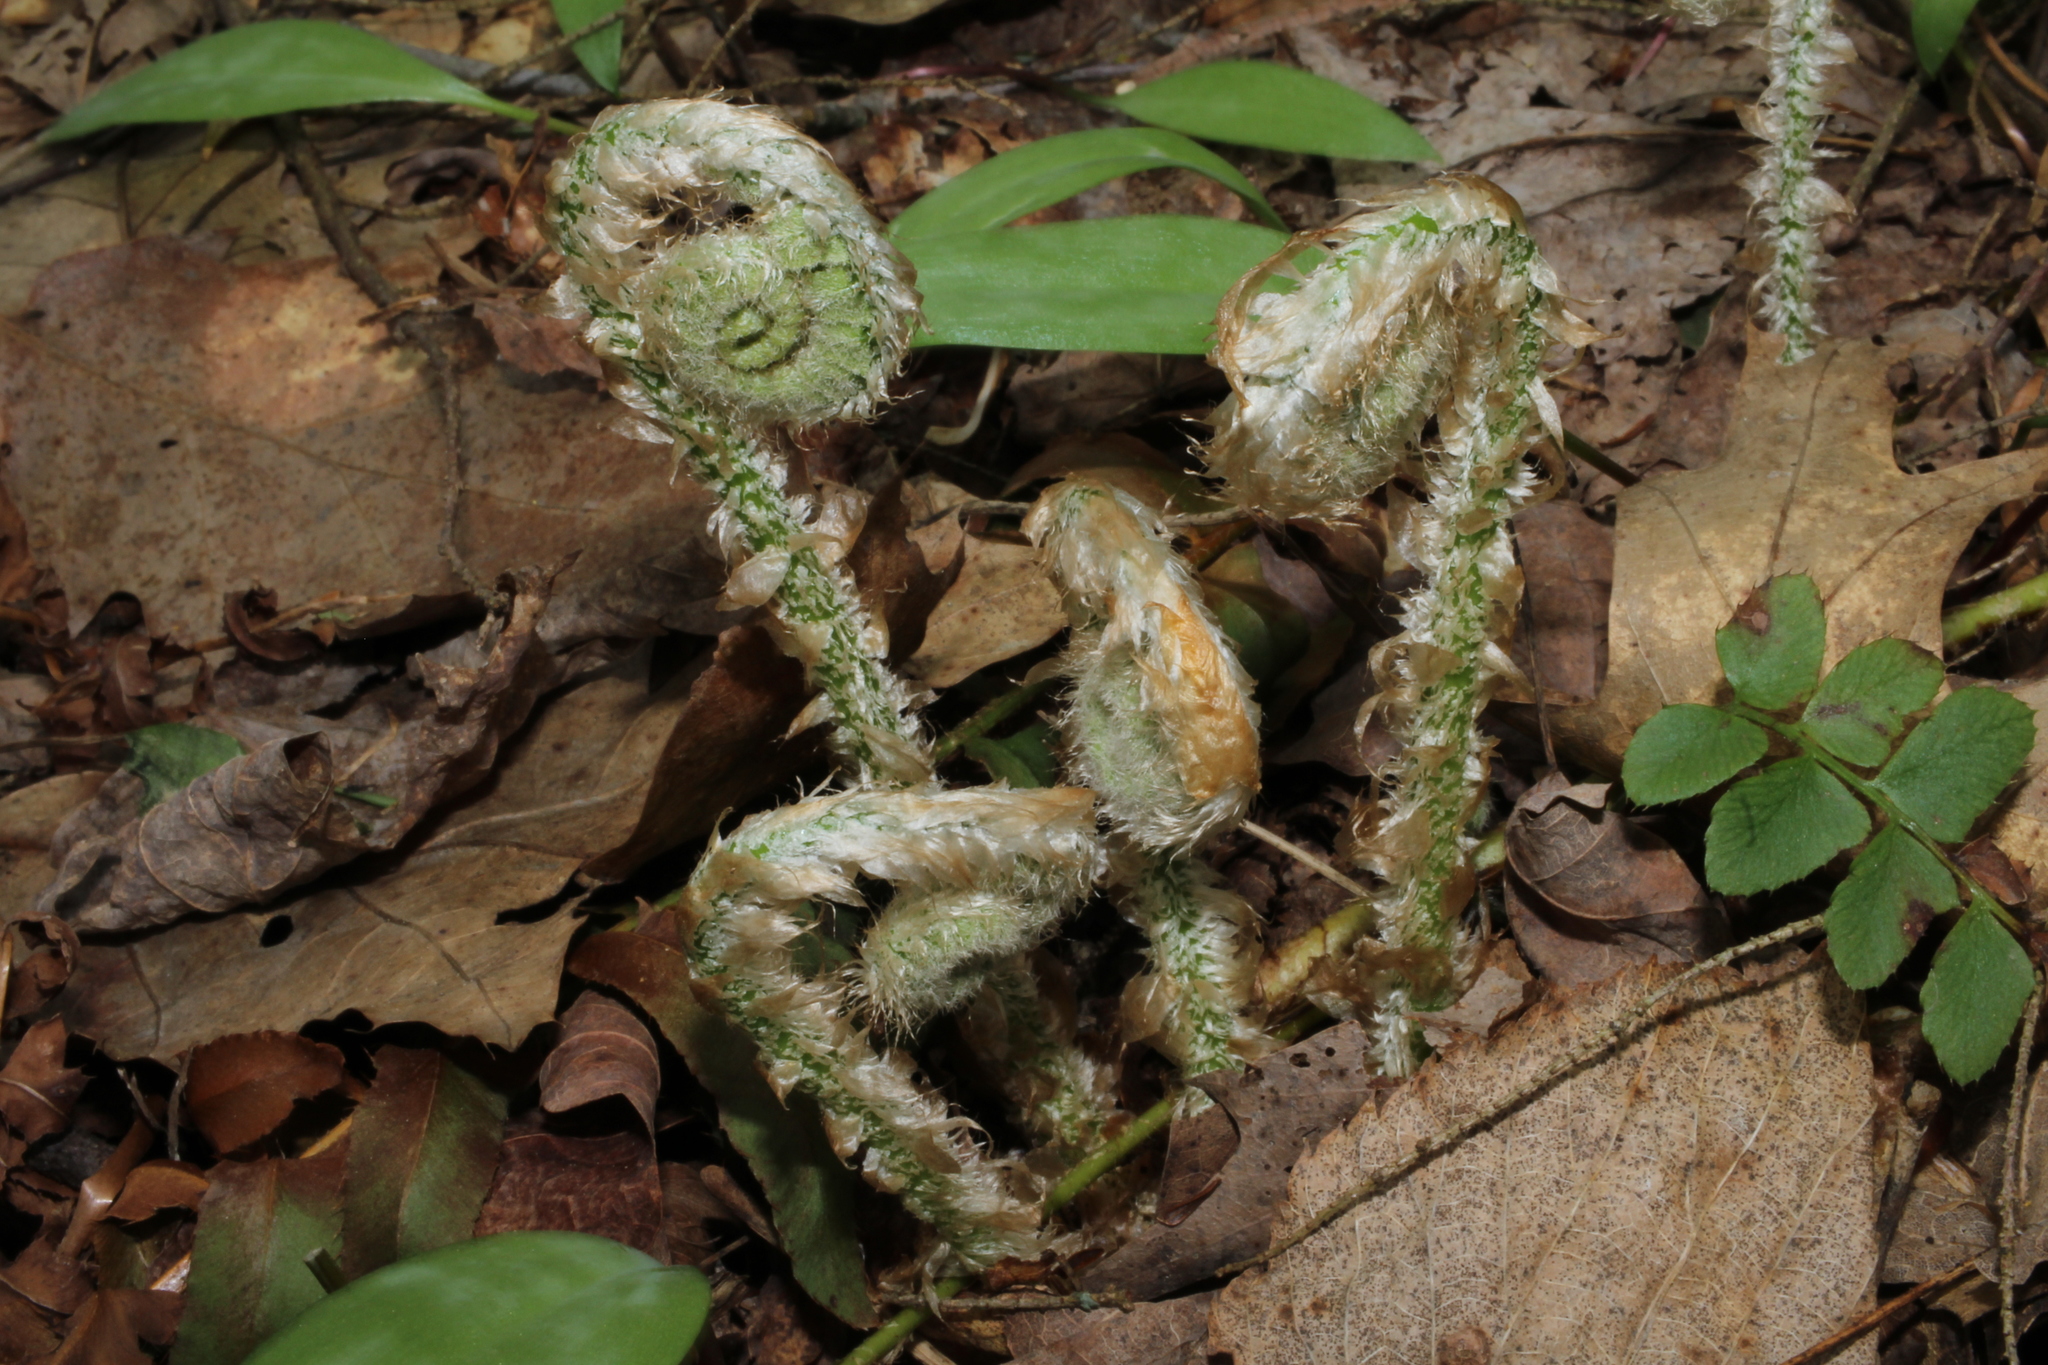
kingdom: Plantae
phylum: Tracheophyta
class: Polypodiopsida
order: Polypodiales
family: Dryopteridaceae
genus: Polystichum
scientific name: Polystichum acrostichoides
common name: Christmas fern
